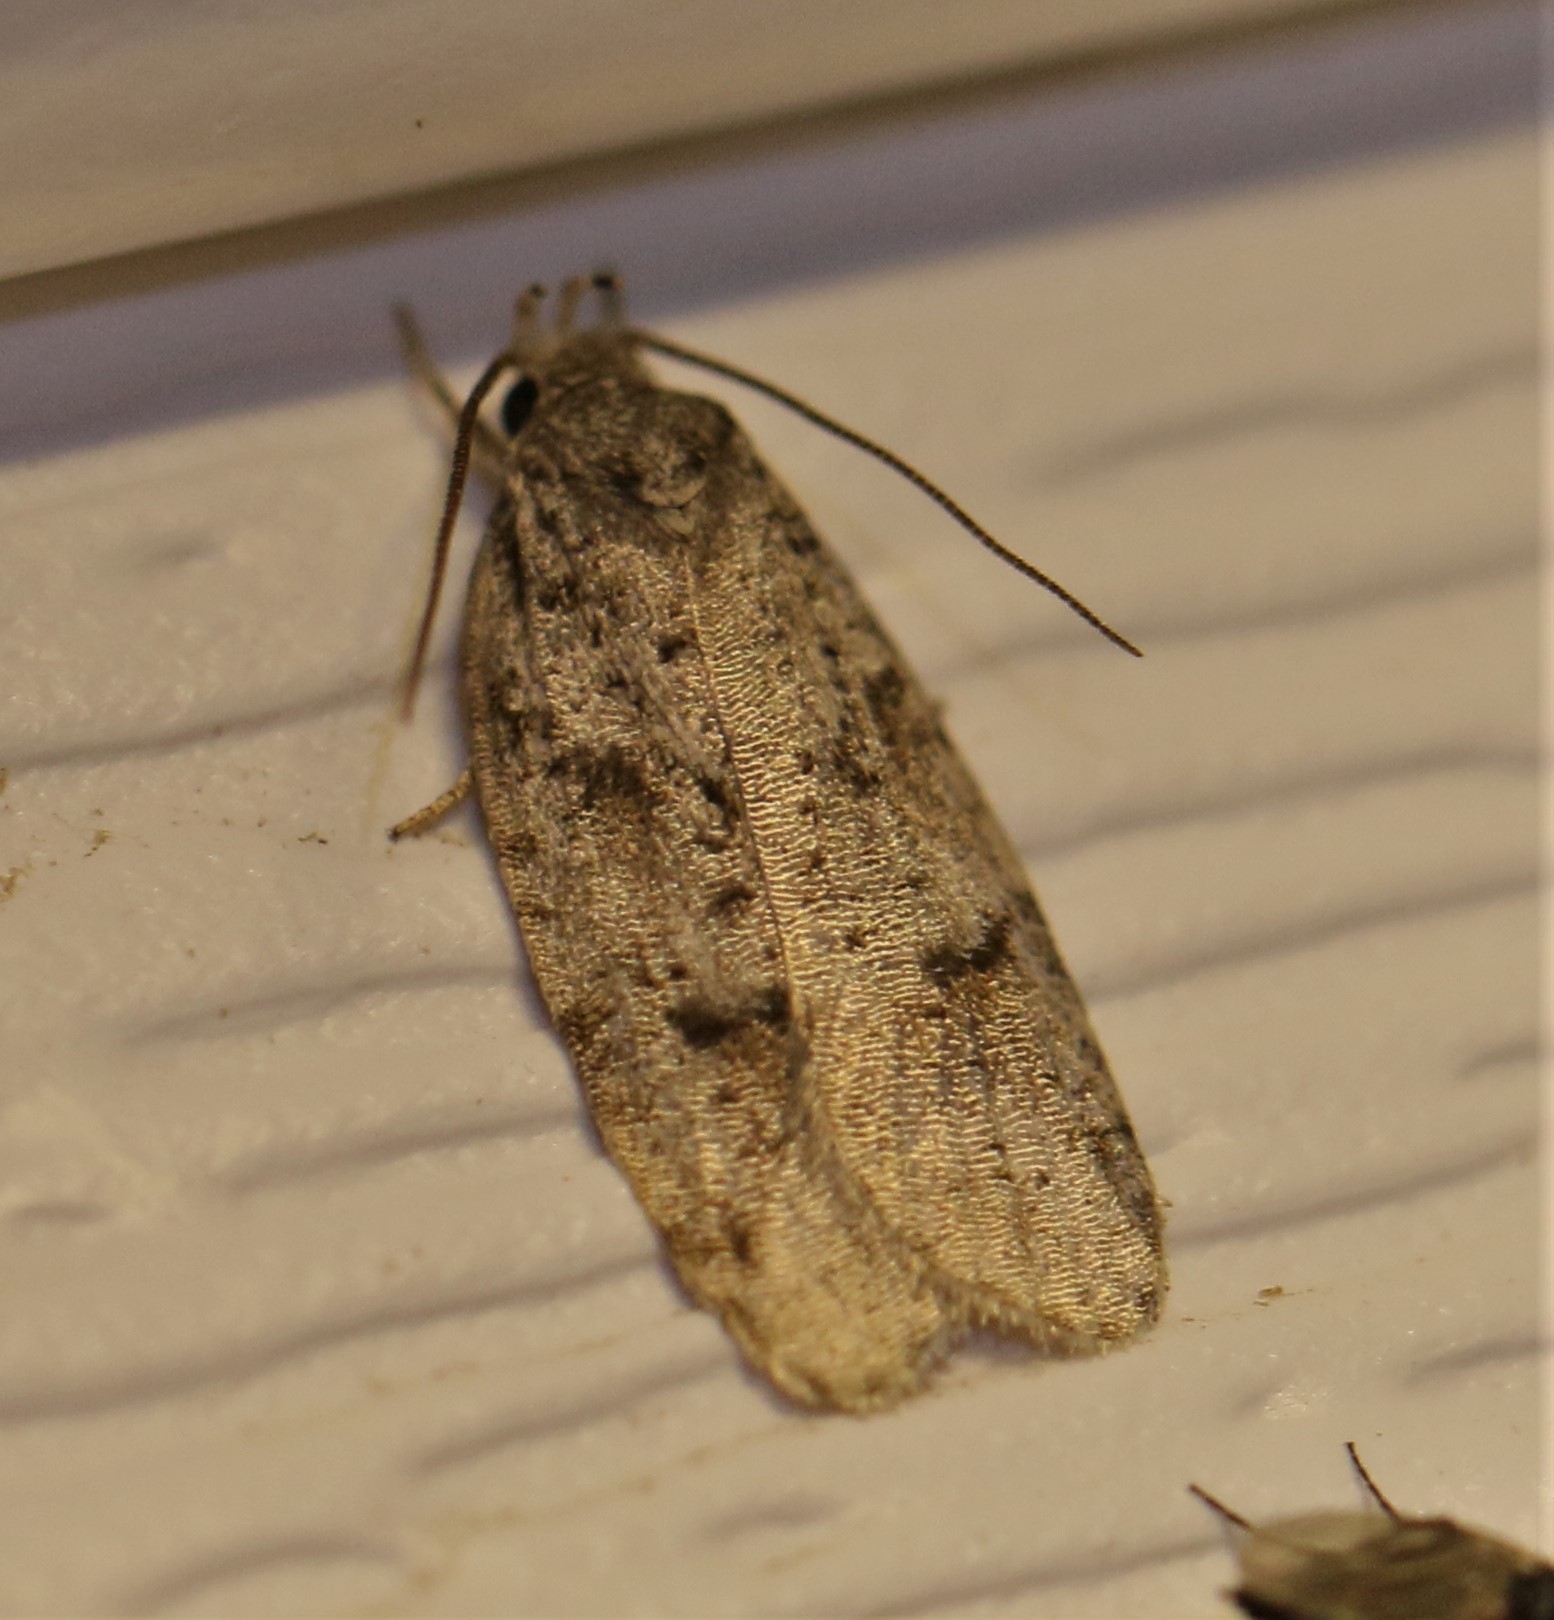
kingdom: Animalia
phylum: Arthropoda
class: Insecta
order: Lepidoptera
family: Depressariidae
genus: Bibarrambla
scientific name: Bibarrambla allenella
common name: Bog bibarrambla moth
